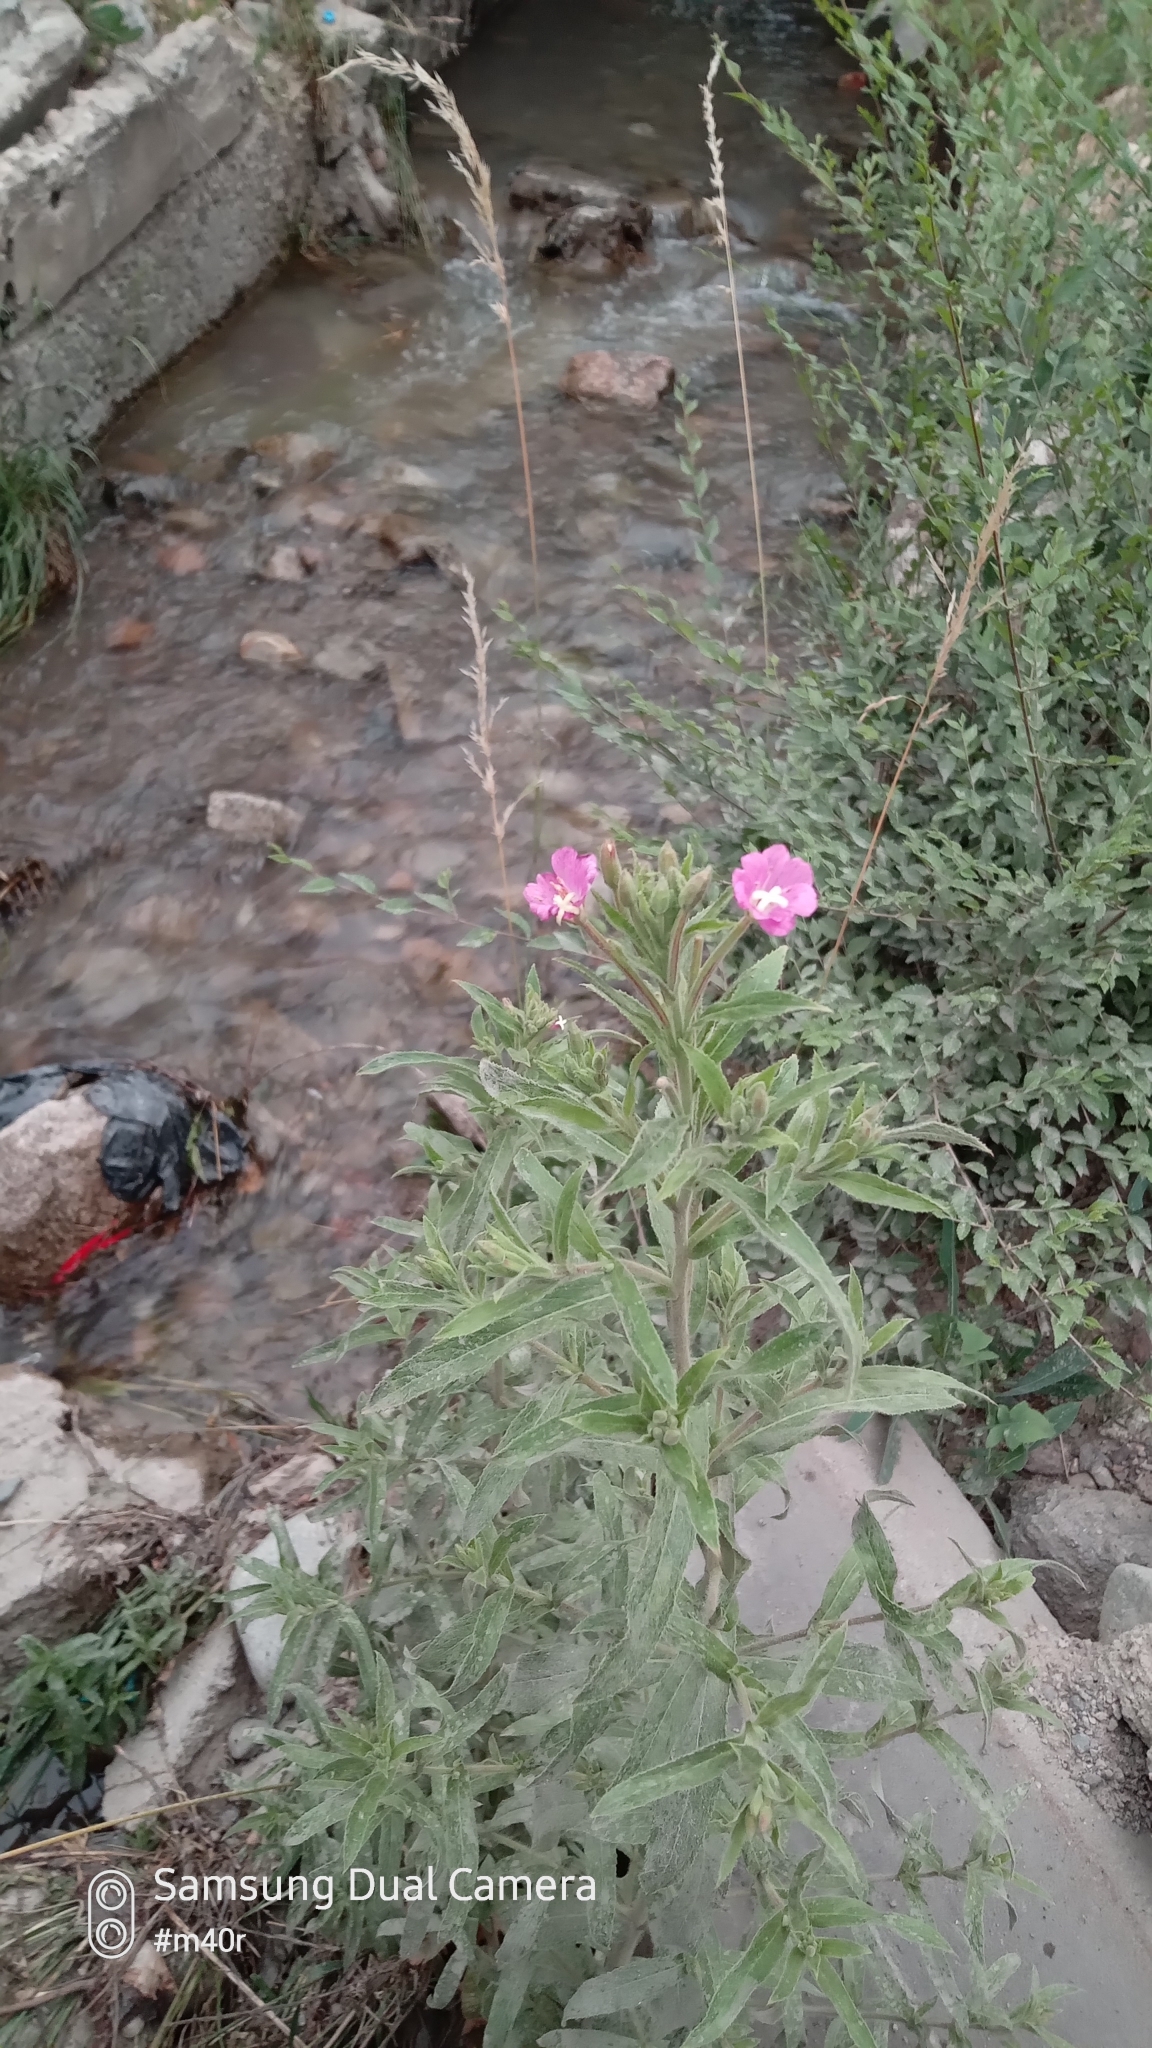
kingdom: Plantae
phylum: Tracheophyta
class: Magnoliopsida
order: Myrtales
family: Onagraceae
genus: Epilobium
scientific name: Epilobium hirsutum
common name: Great willowherb
